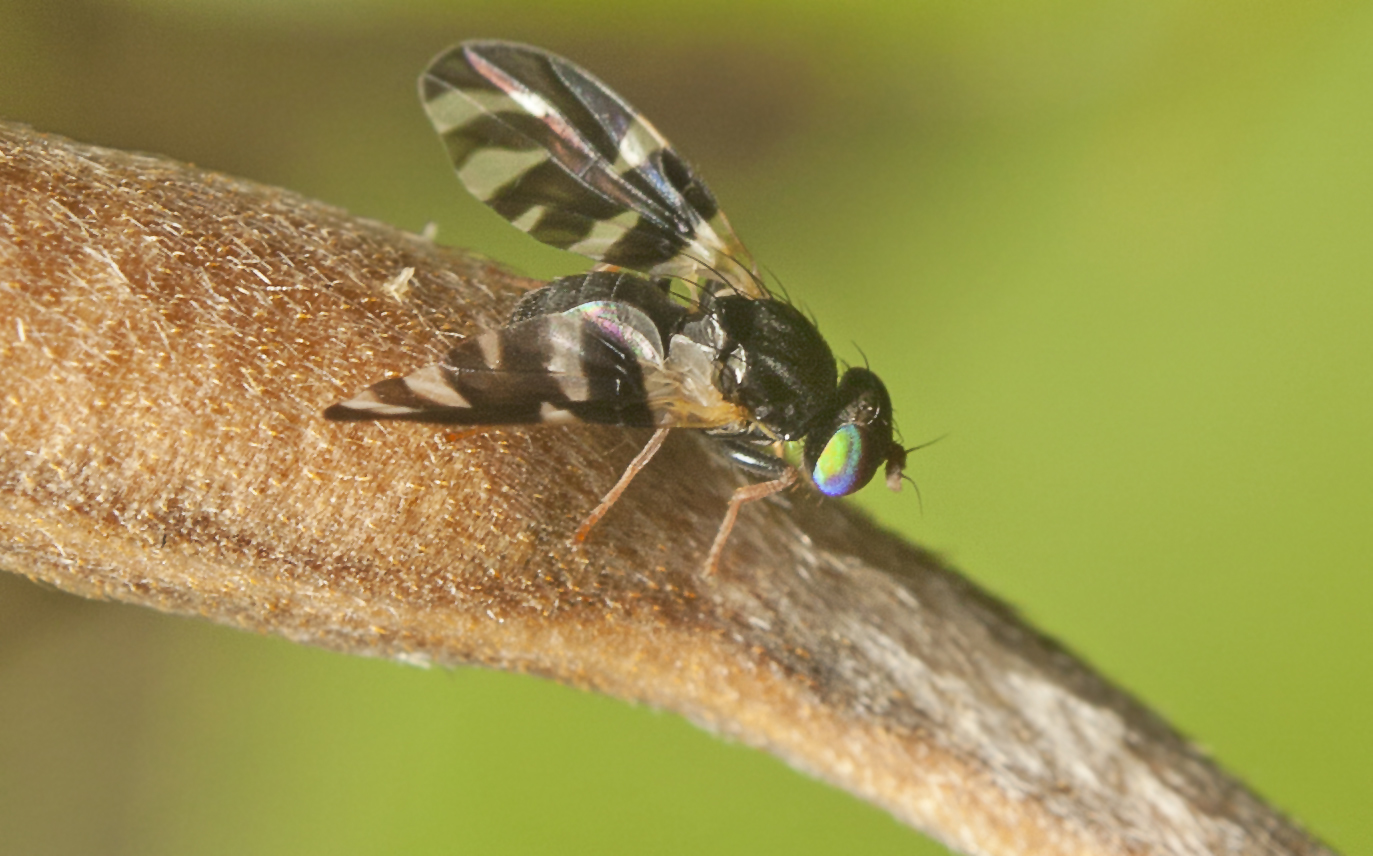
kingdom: Animalia
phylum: Arthropoda
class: Insecta
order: Diptera
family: Tephritidae
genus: Sphaeniscus
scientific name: Sphaeniscus atilius
